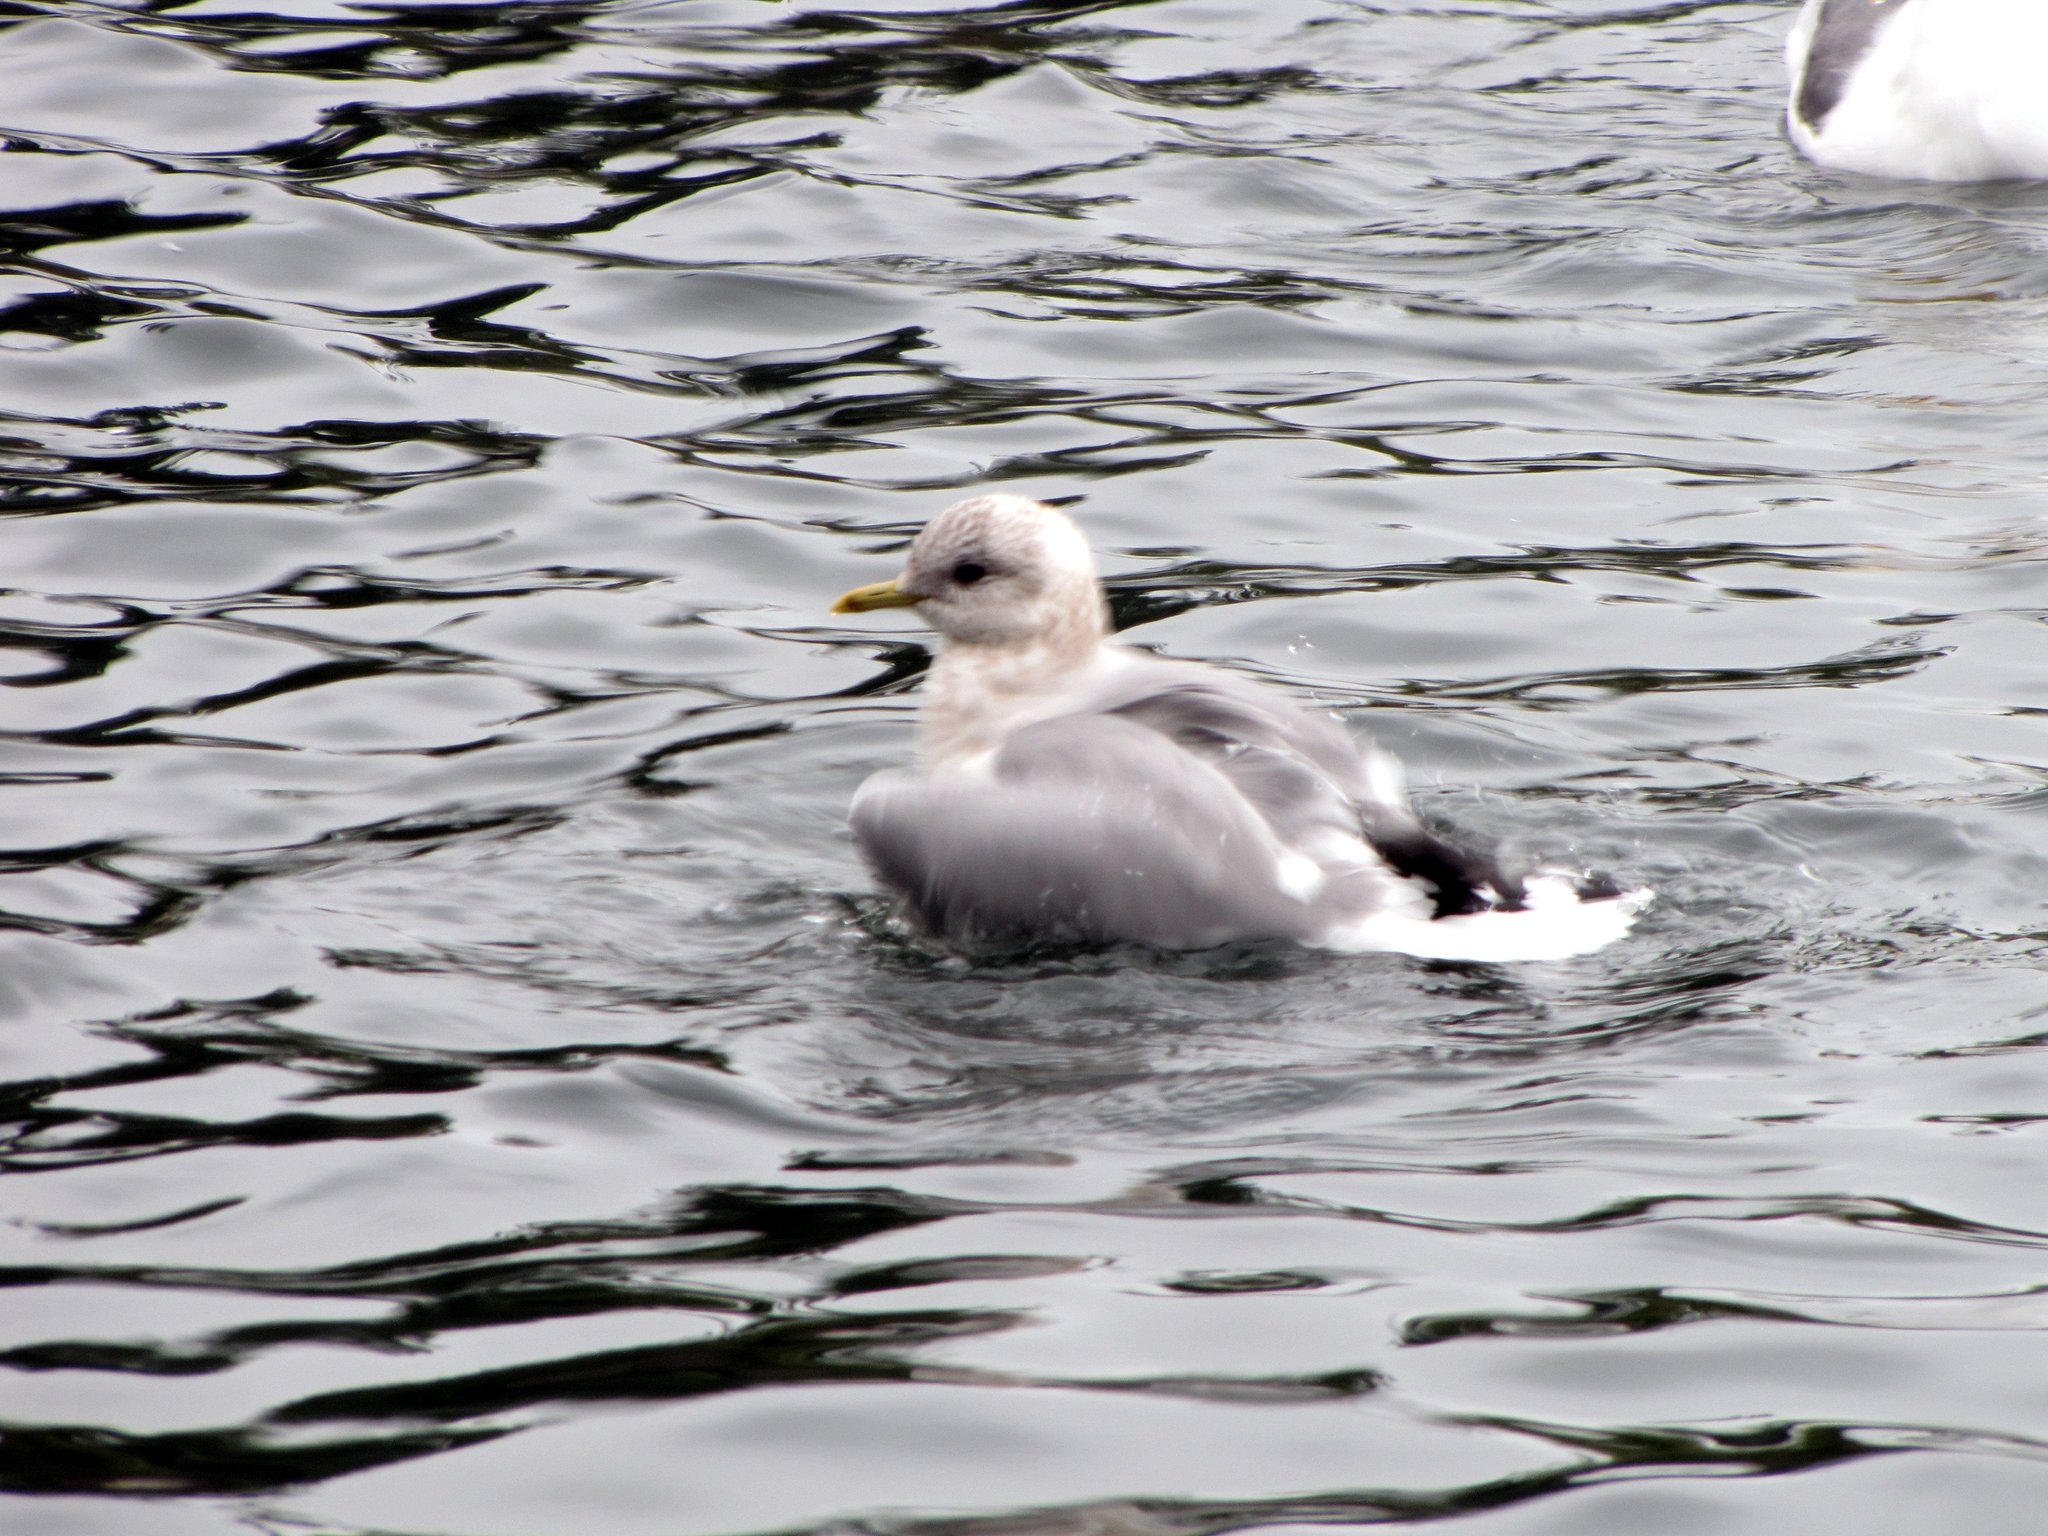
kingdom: Animalia
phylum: Chordata
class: Aves
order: Charadriiformes
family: Laridae
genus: Larus
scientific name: Larus brachyrhynchus
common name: Short-billed gull
